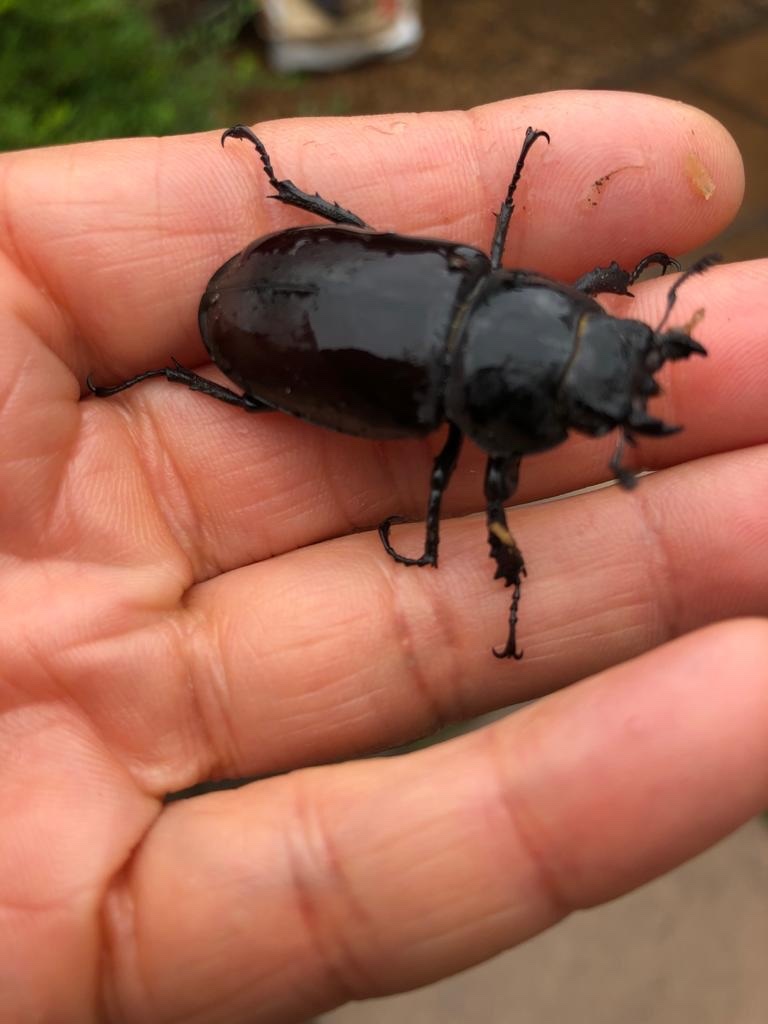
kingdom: Animalia
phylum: Arthropoda
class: Insecta
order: Coleoptera
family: Lucanidae
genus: Lucanus
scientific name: Lucanus cervus
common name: Stag beetle
